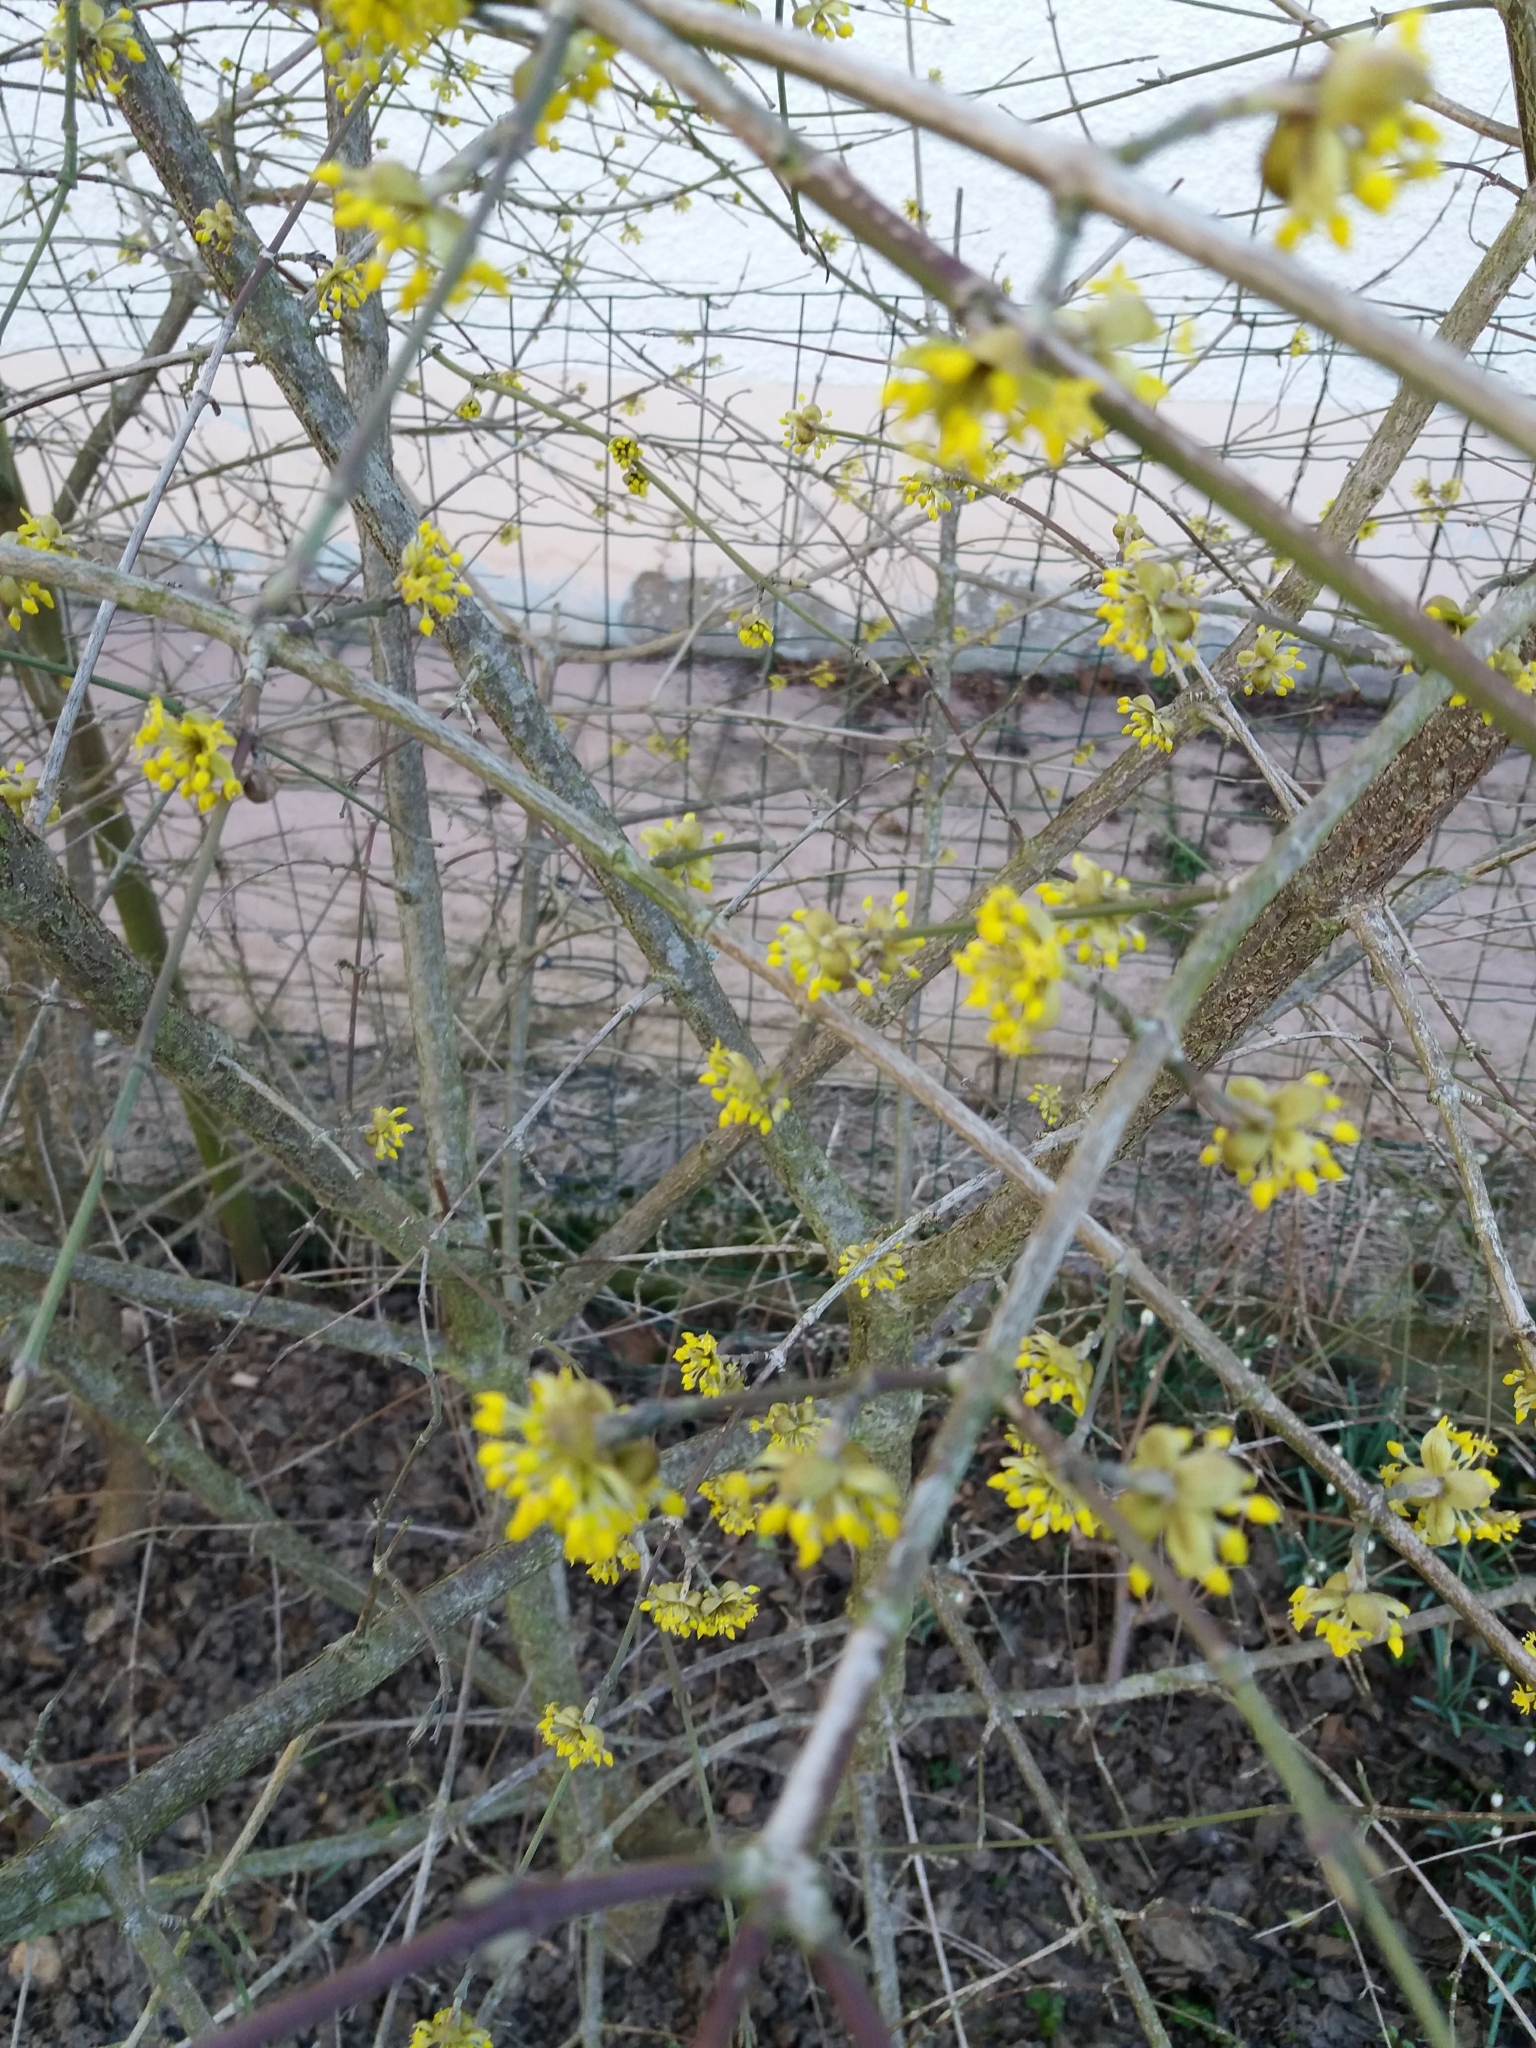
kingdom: Plantae
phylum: Tracheophyta
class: Magnoliopsida
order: Cornales
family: Cornaceae
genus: Cornus
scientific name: Cornus mas
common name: Cornelian-cherry
